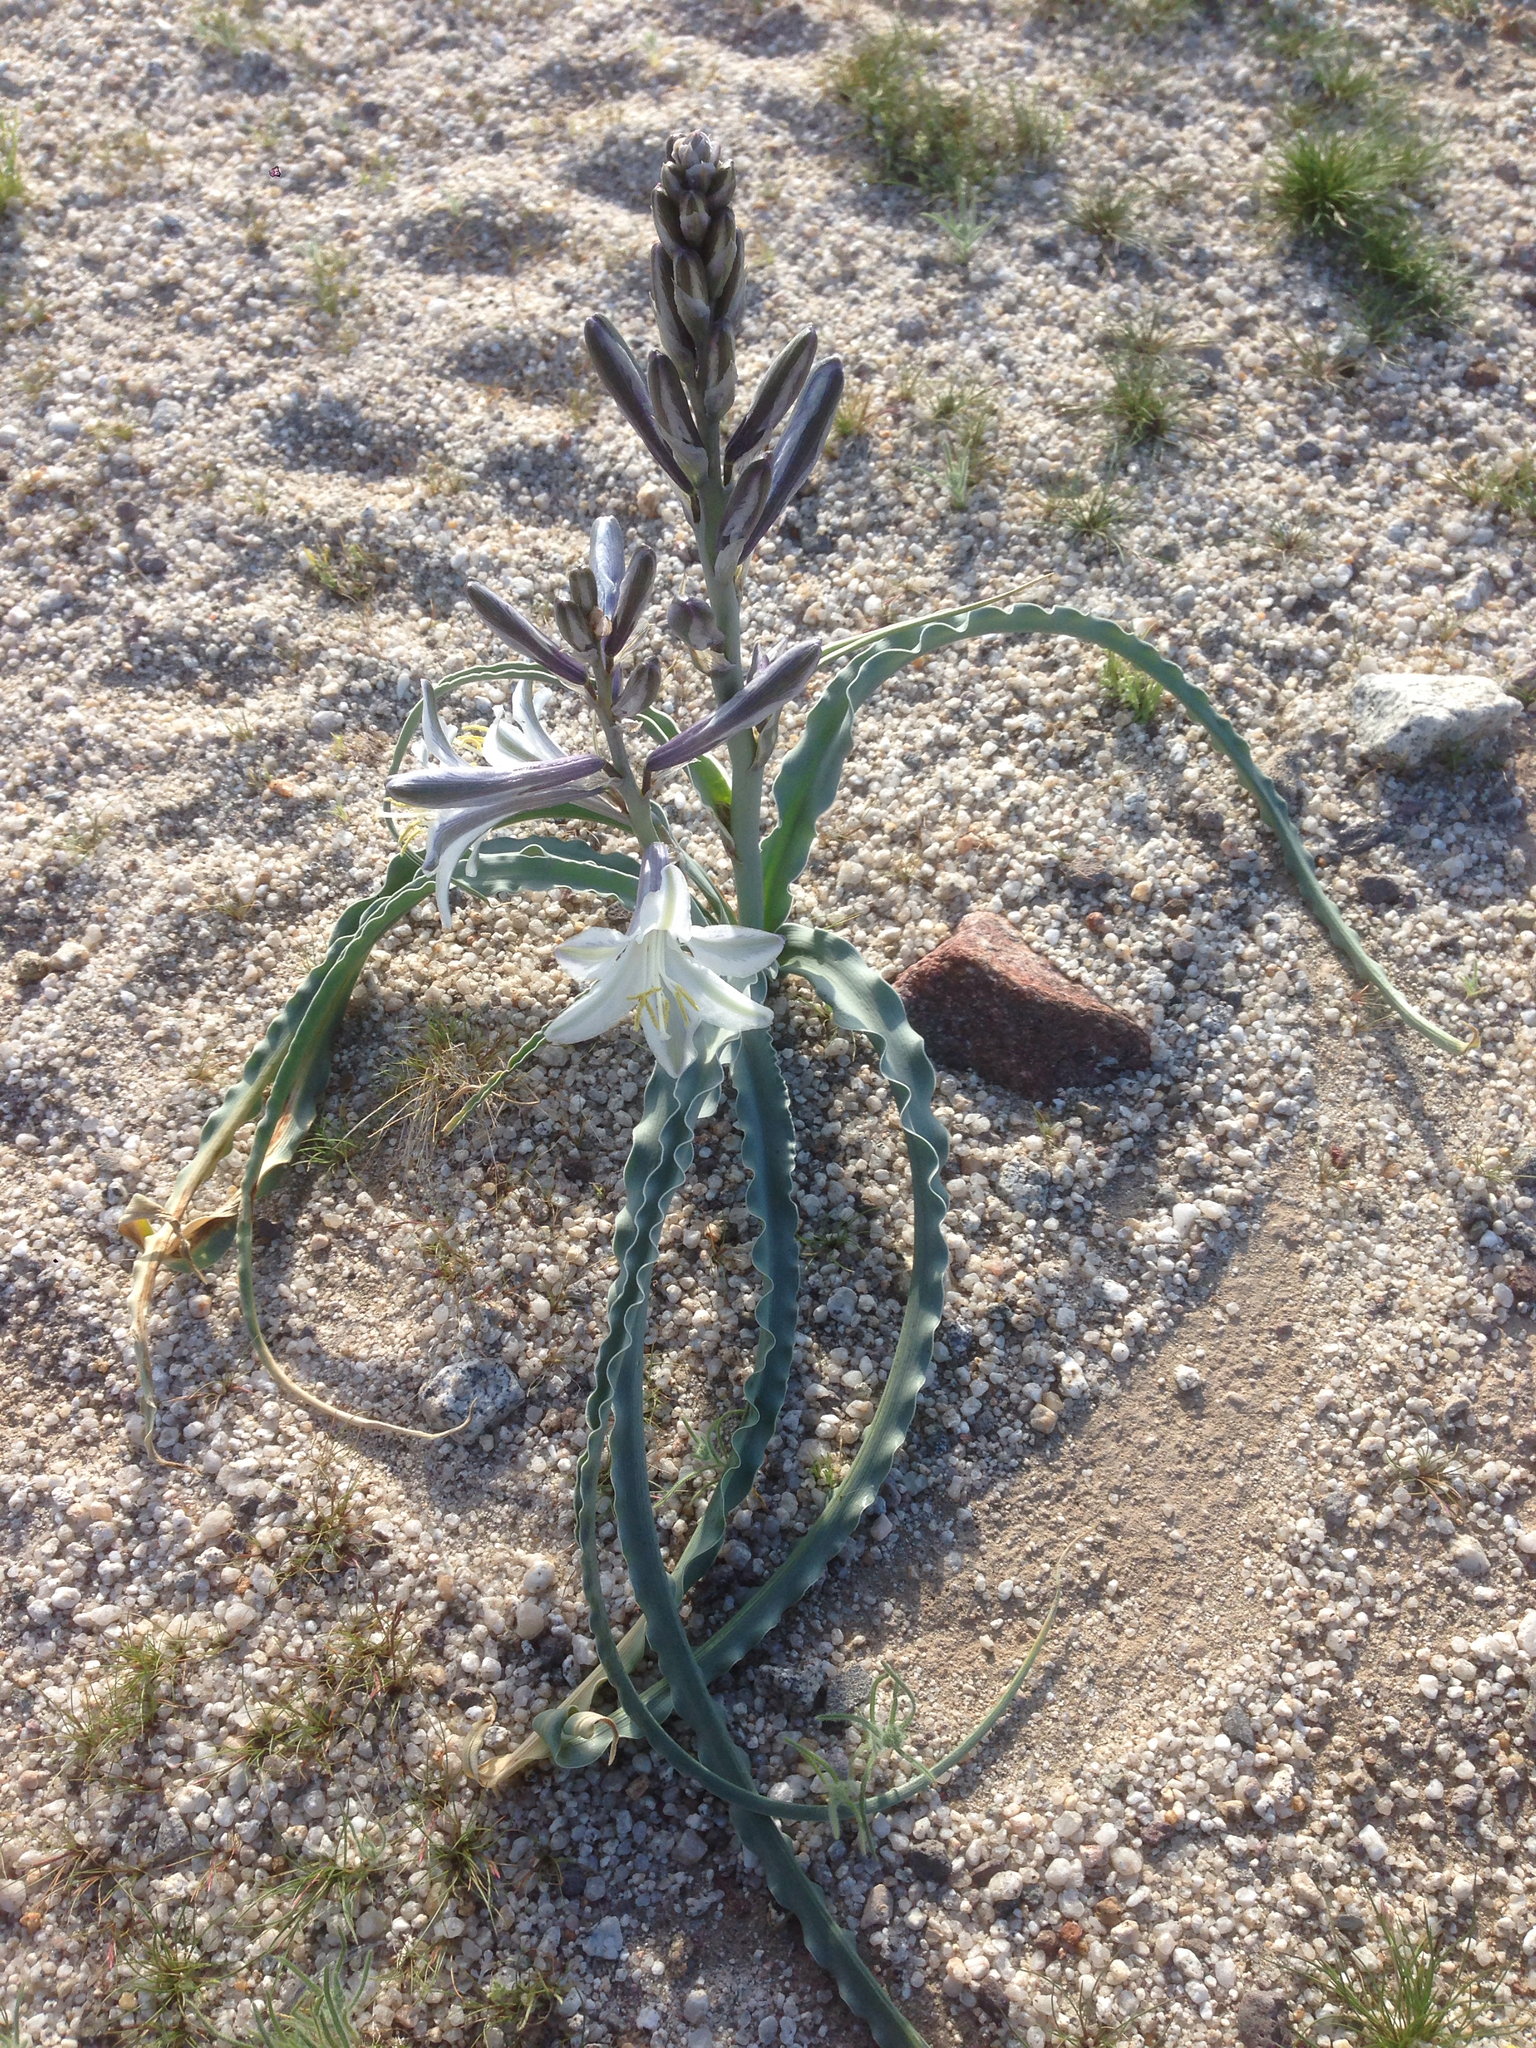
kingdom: Plantae
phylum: Tracheophyta
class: Liliopsida
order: Asparagales
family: Asparagaceae
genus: Hesperocallis
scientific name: Hesperocallis undulata
